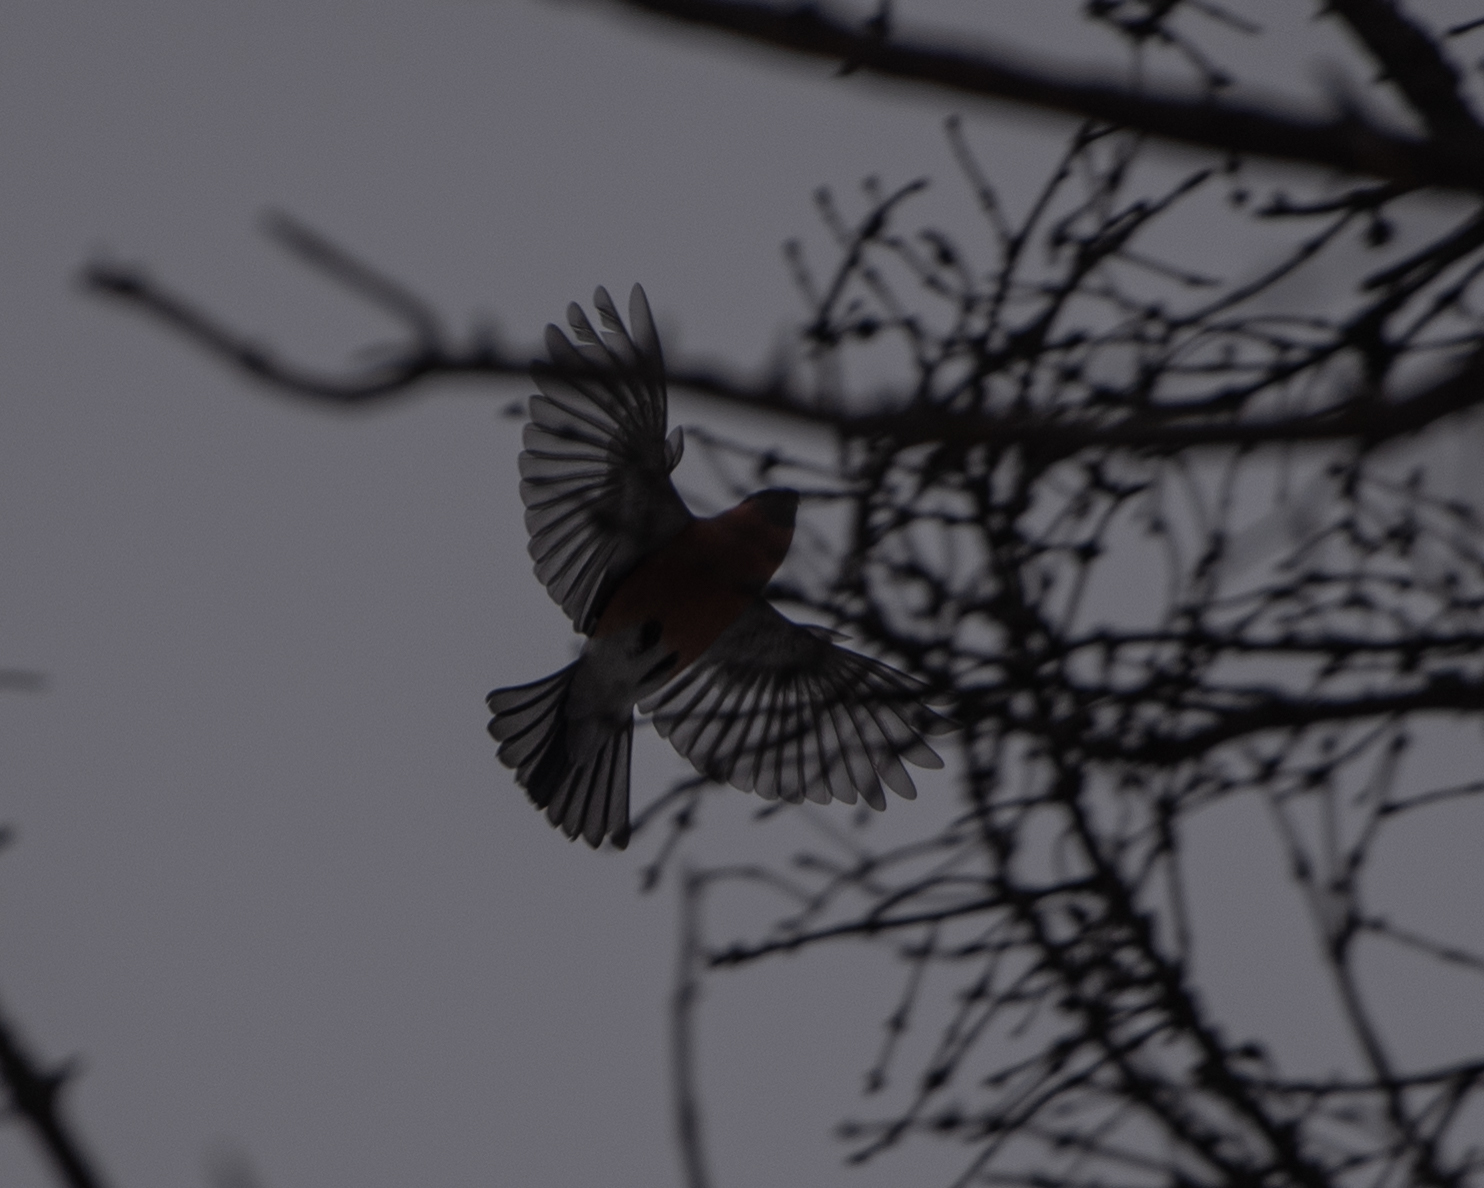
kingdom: Animalia
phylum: Chordata
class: Aves
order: Passeriformes
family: Fringillidae
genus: Pyrrhula
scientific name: Pyrrhula pyrrhula
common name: Eurasian bullfinch
